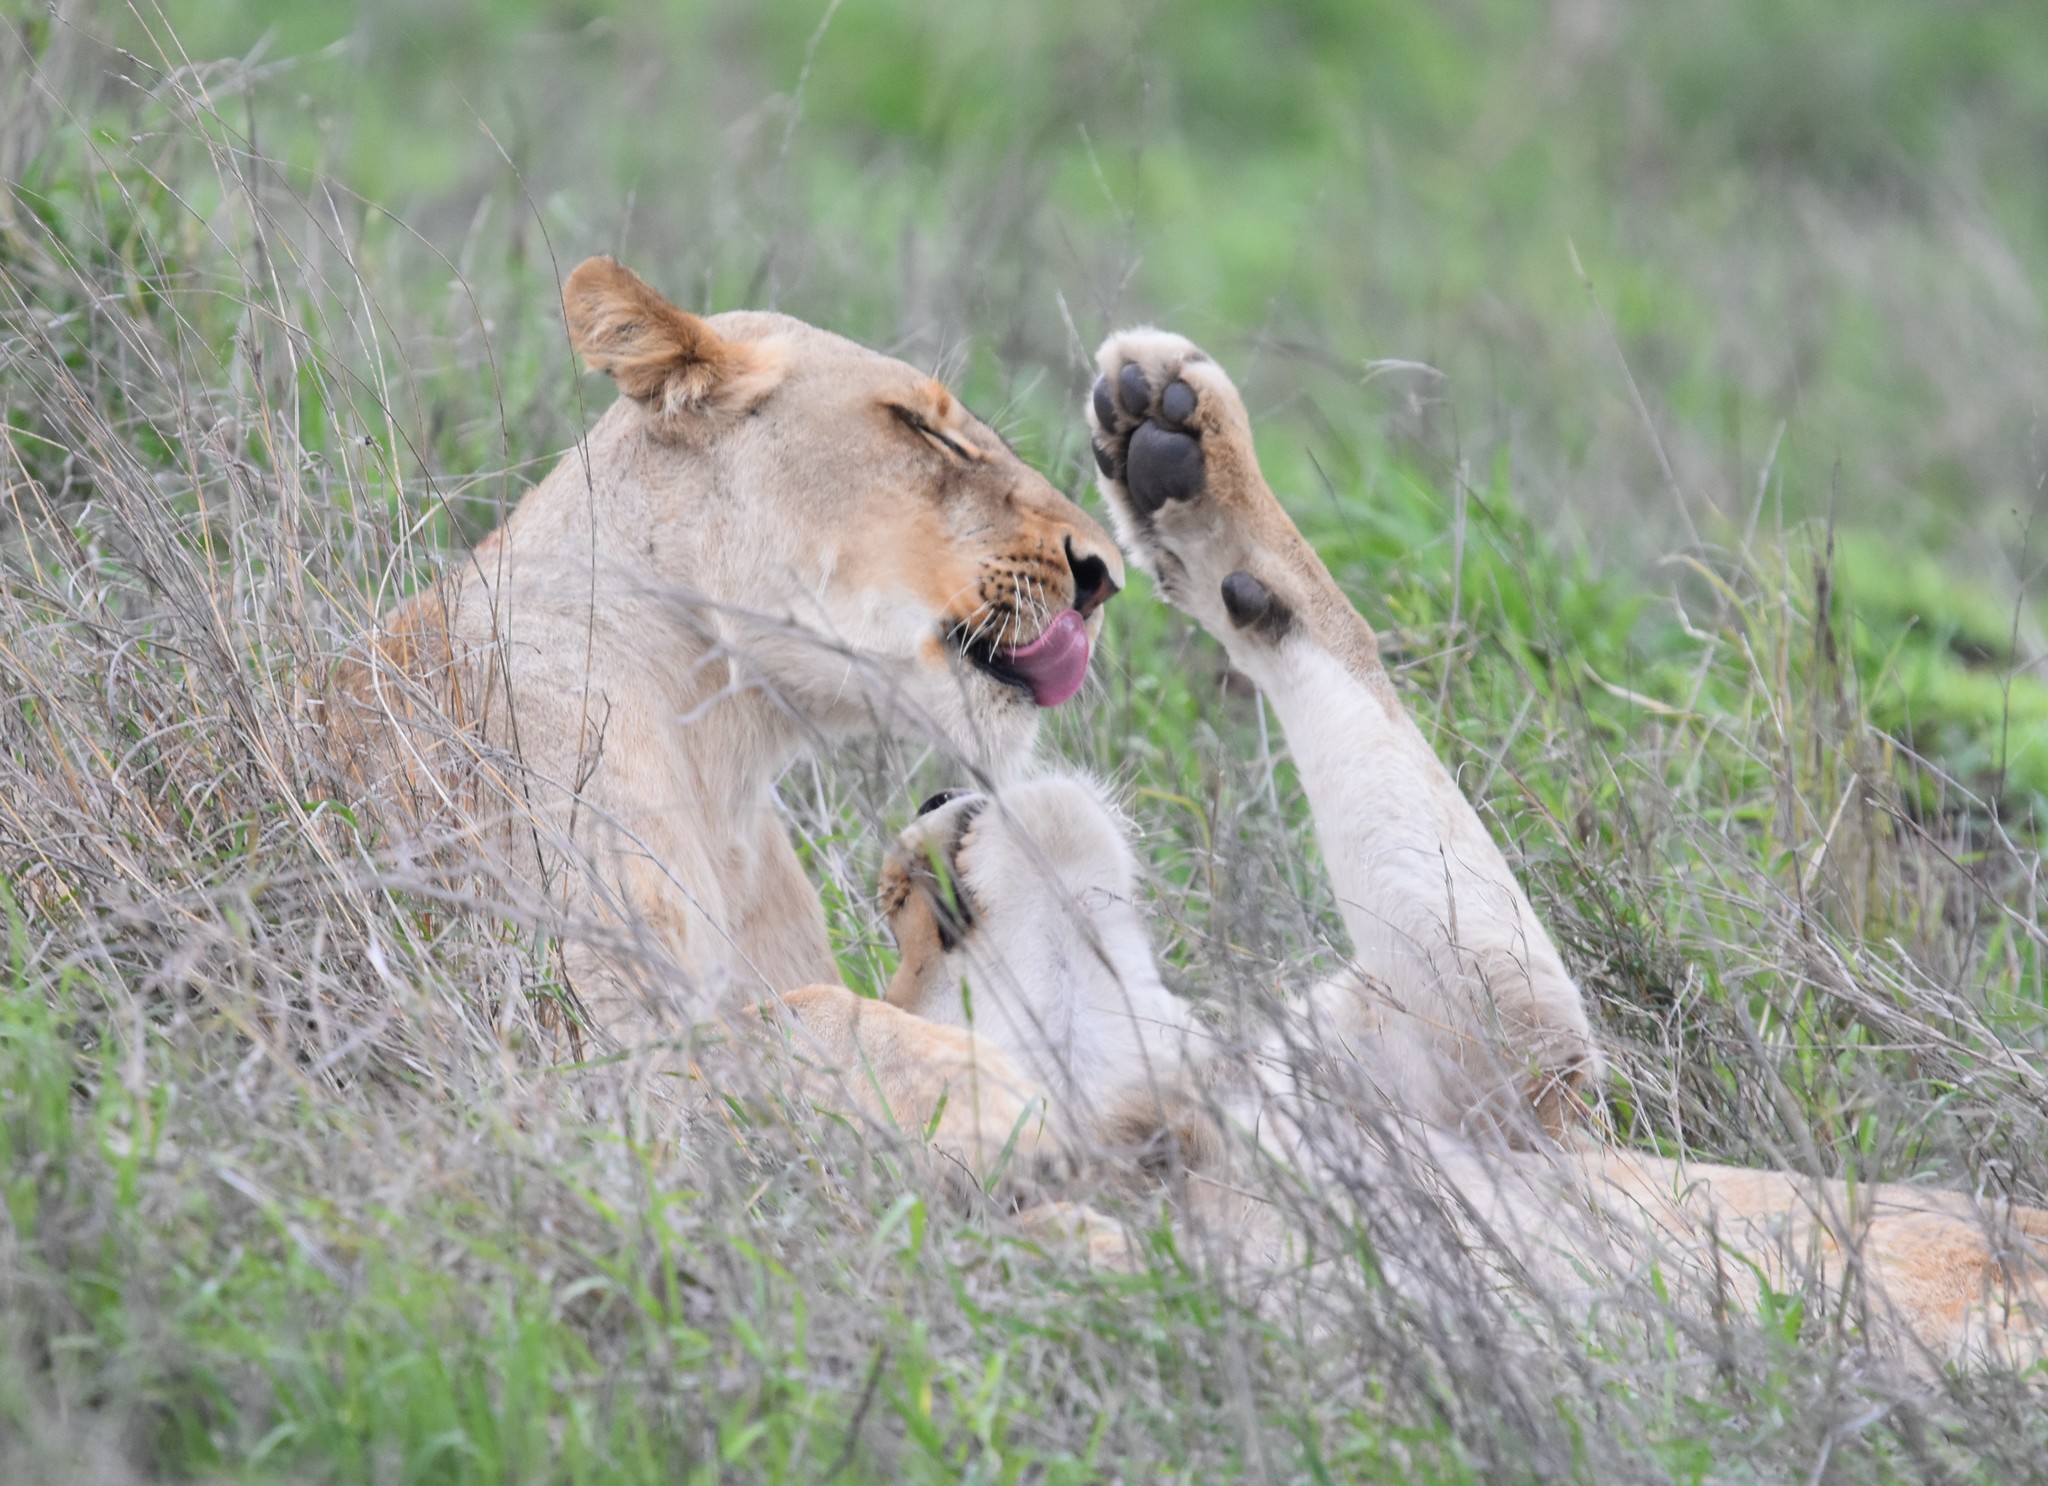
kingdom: Animalia
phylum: Chordata
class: Mammalia
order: Carnivora
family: Felidae
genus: Panthera
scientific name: Panthera leo
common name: Lion
